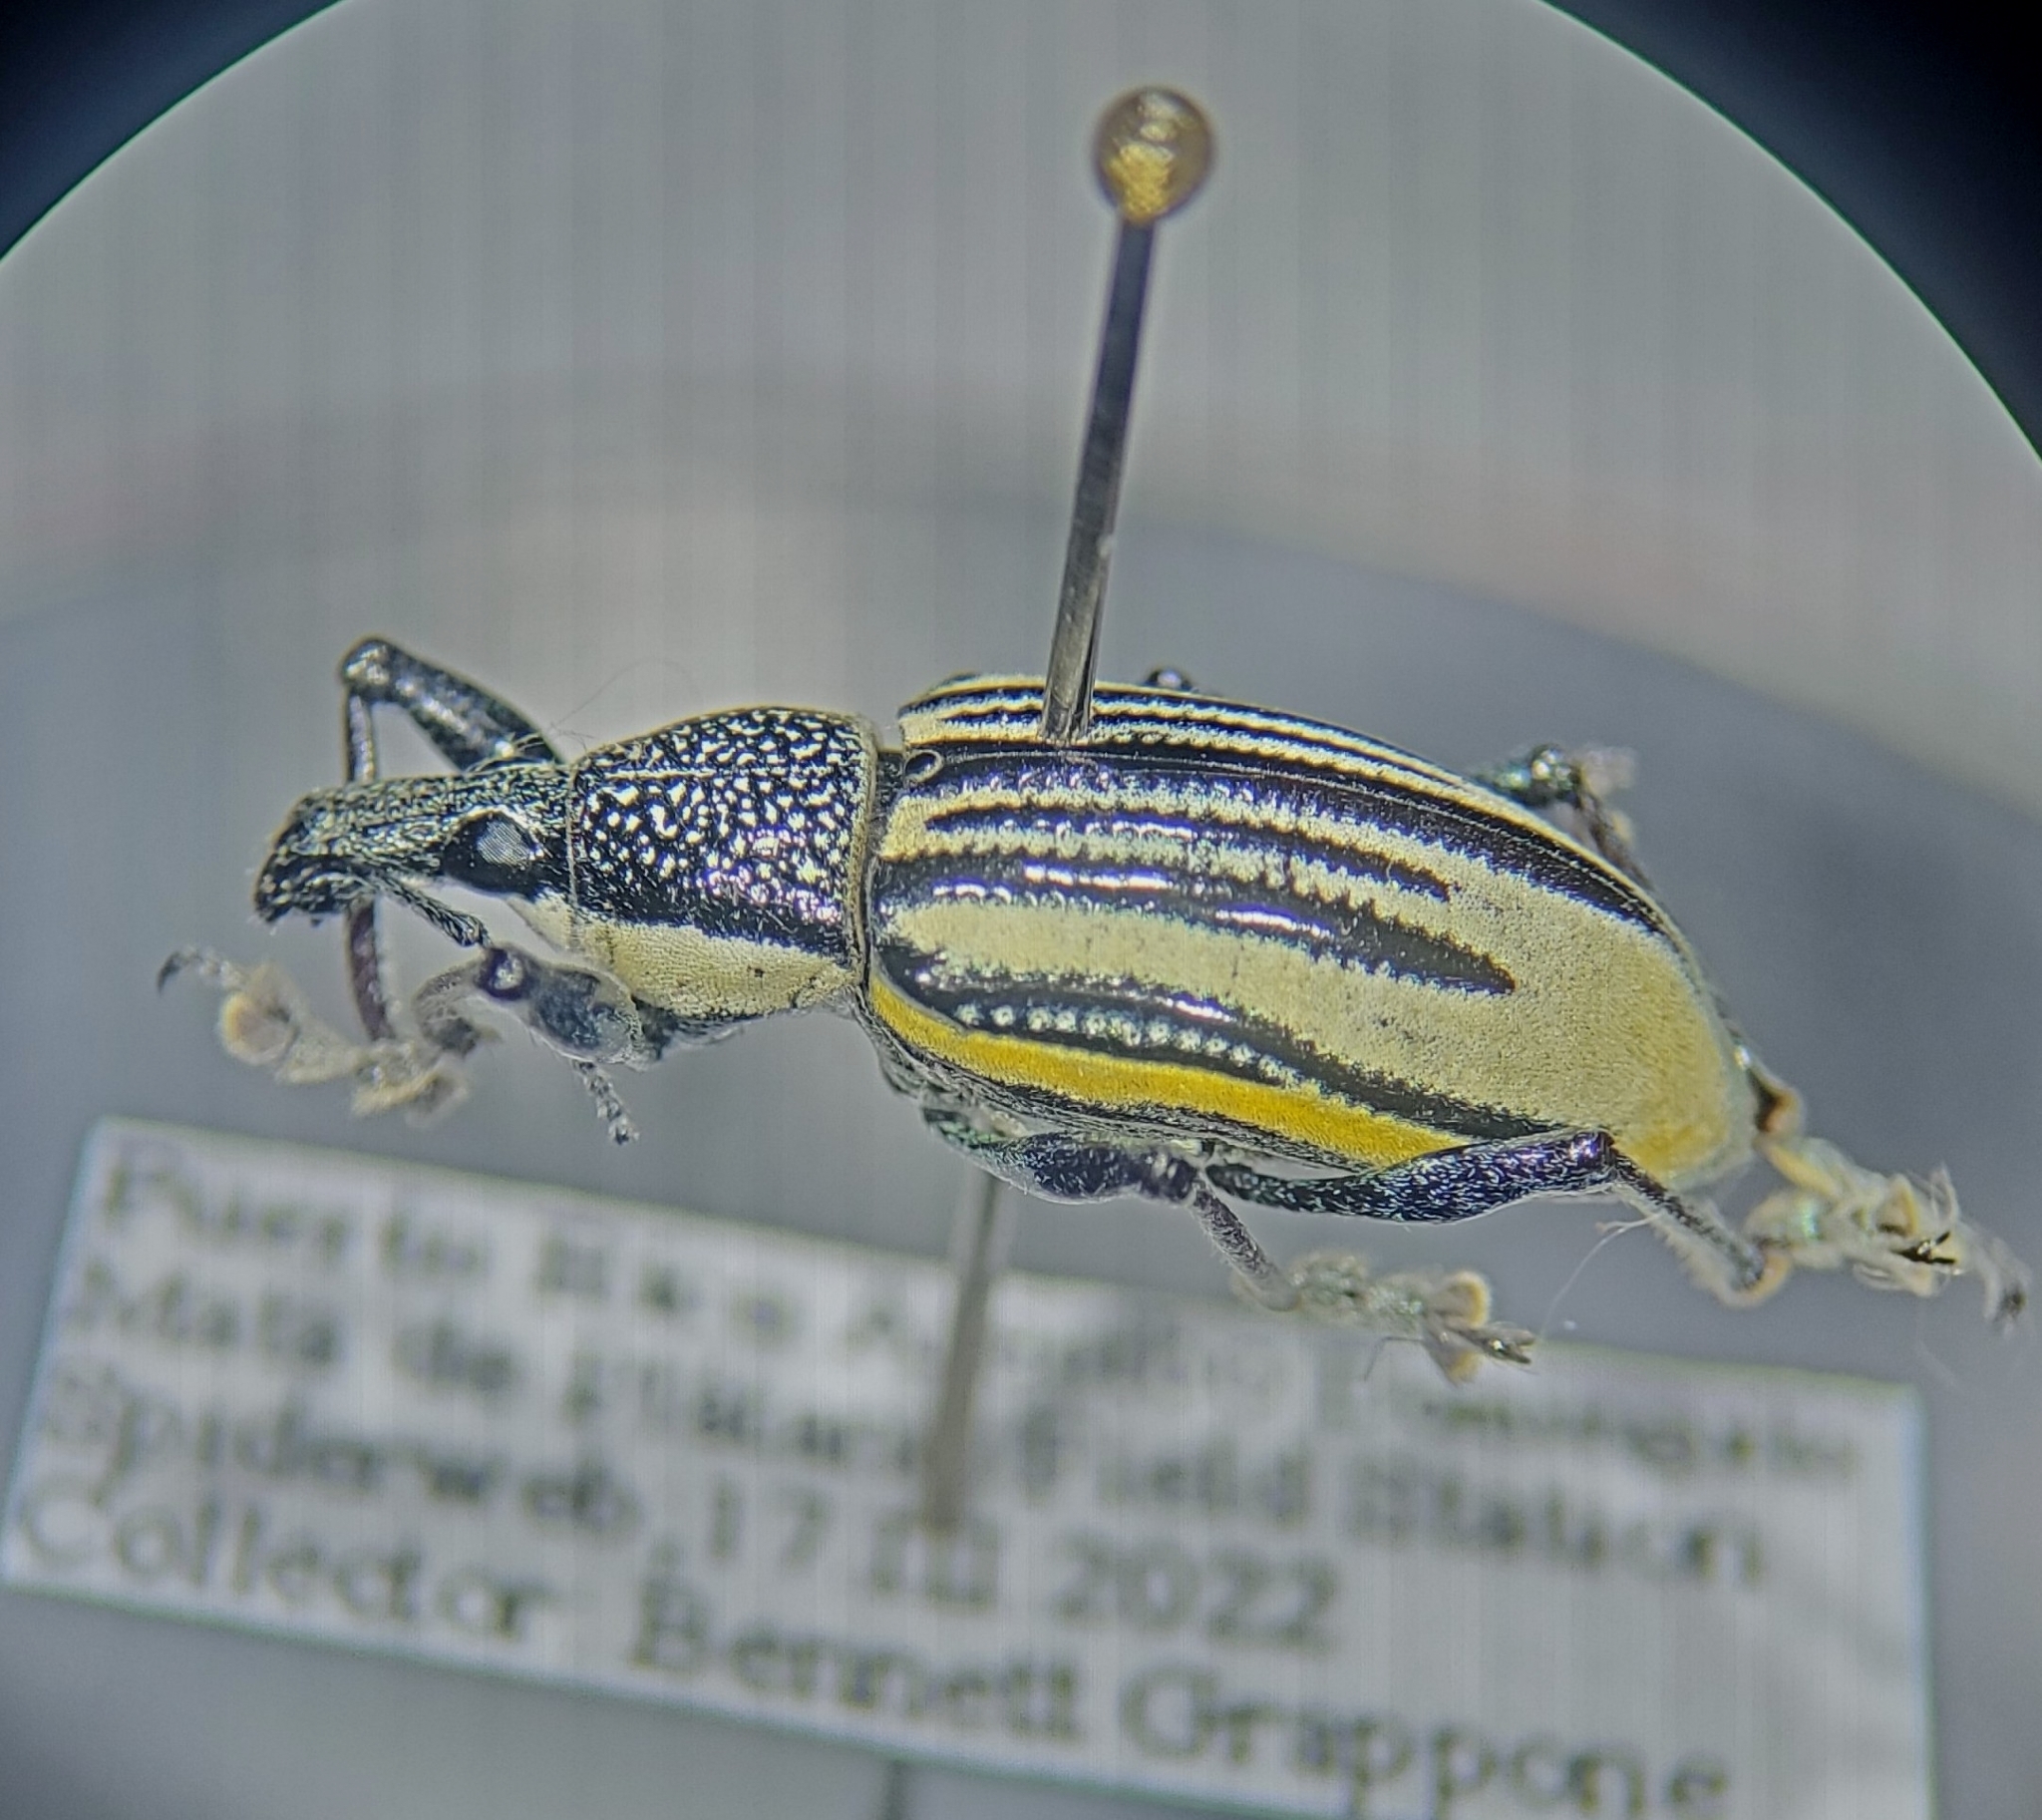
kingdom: Animalia
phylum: Arthropoda
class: Insecta
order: Coleoptera
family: Curculionidae
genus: Diaprepes
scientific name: Diaprepes abbreviatus
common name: Root weevil
